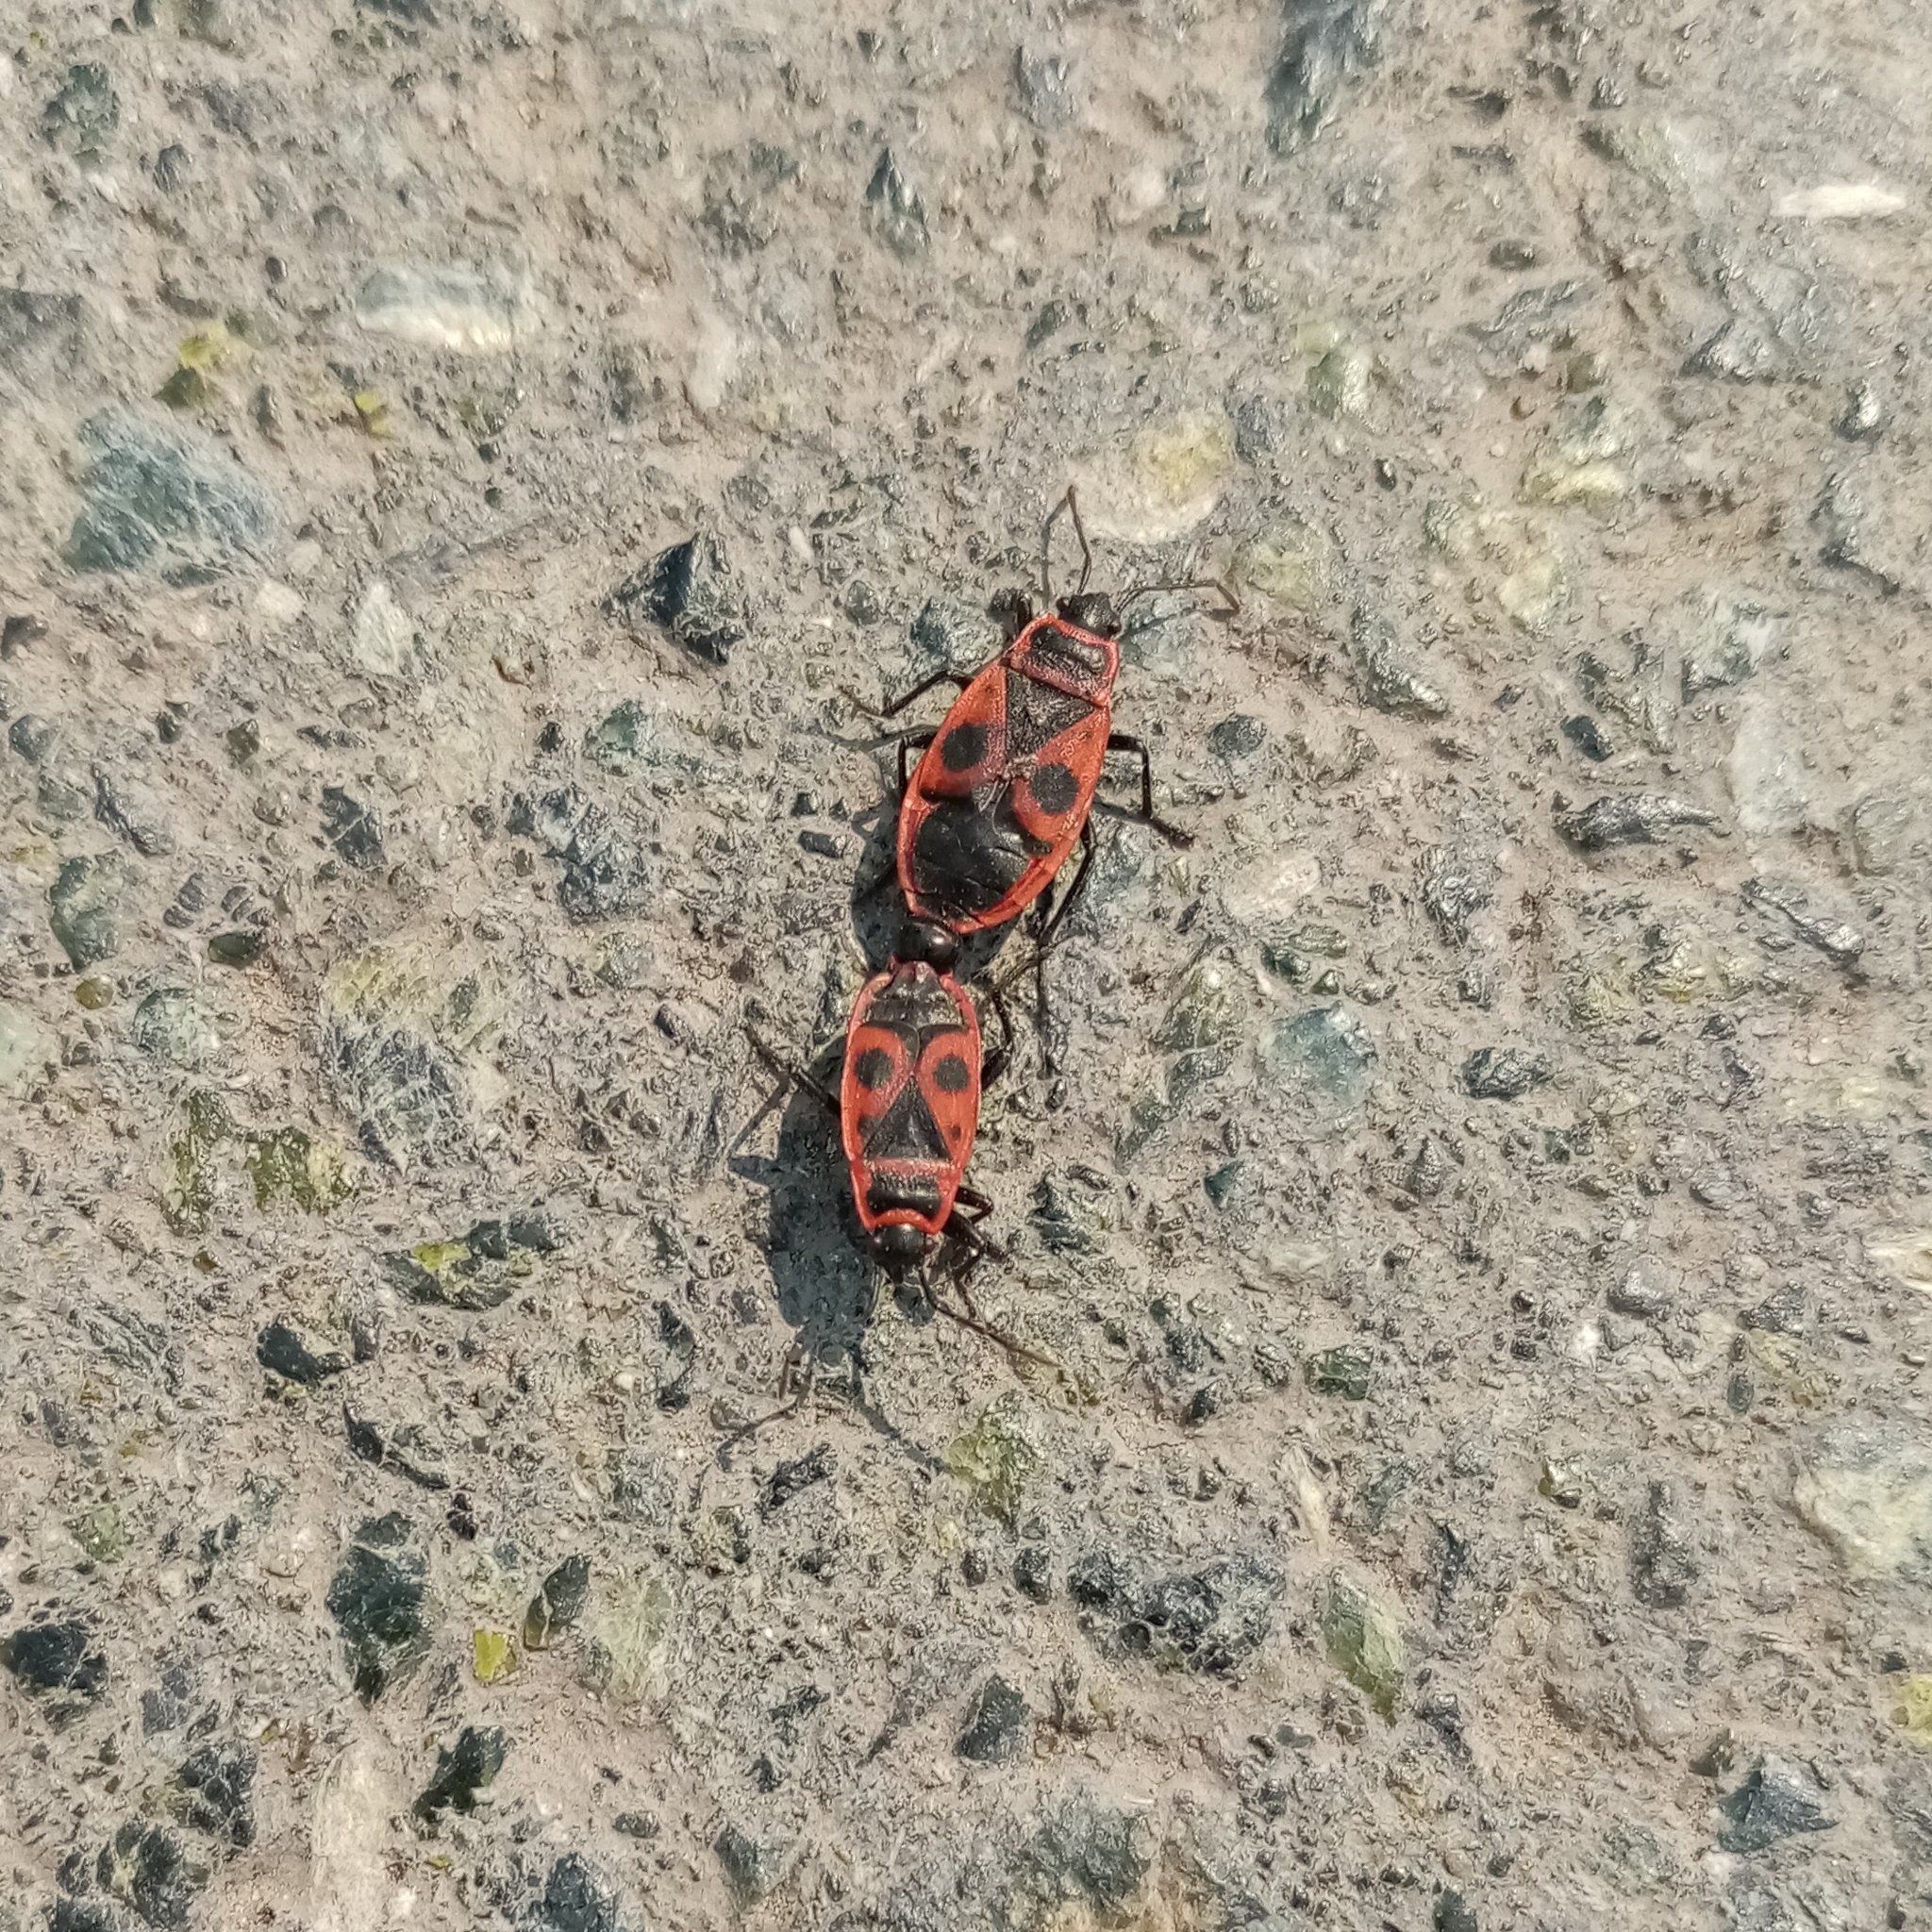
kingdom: Animalia
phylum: Arthropoda
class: Insecta
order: Hemiptera
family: Pyrrhocoridae
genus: Pyrrhocoris
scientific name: Pyrrhocoris apterus
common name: Firebug
